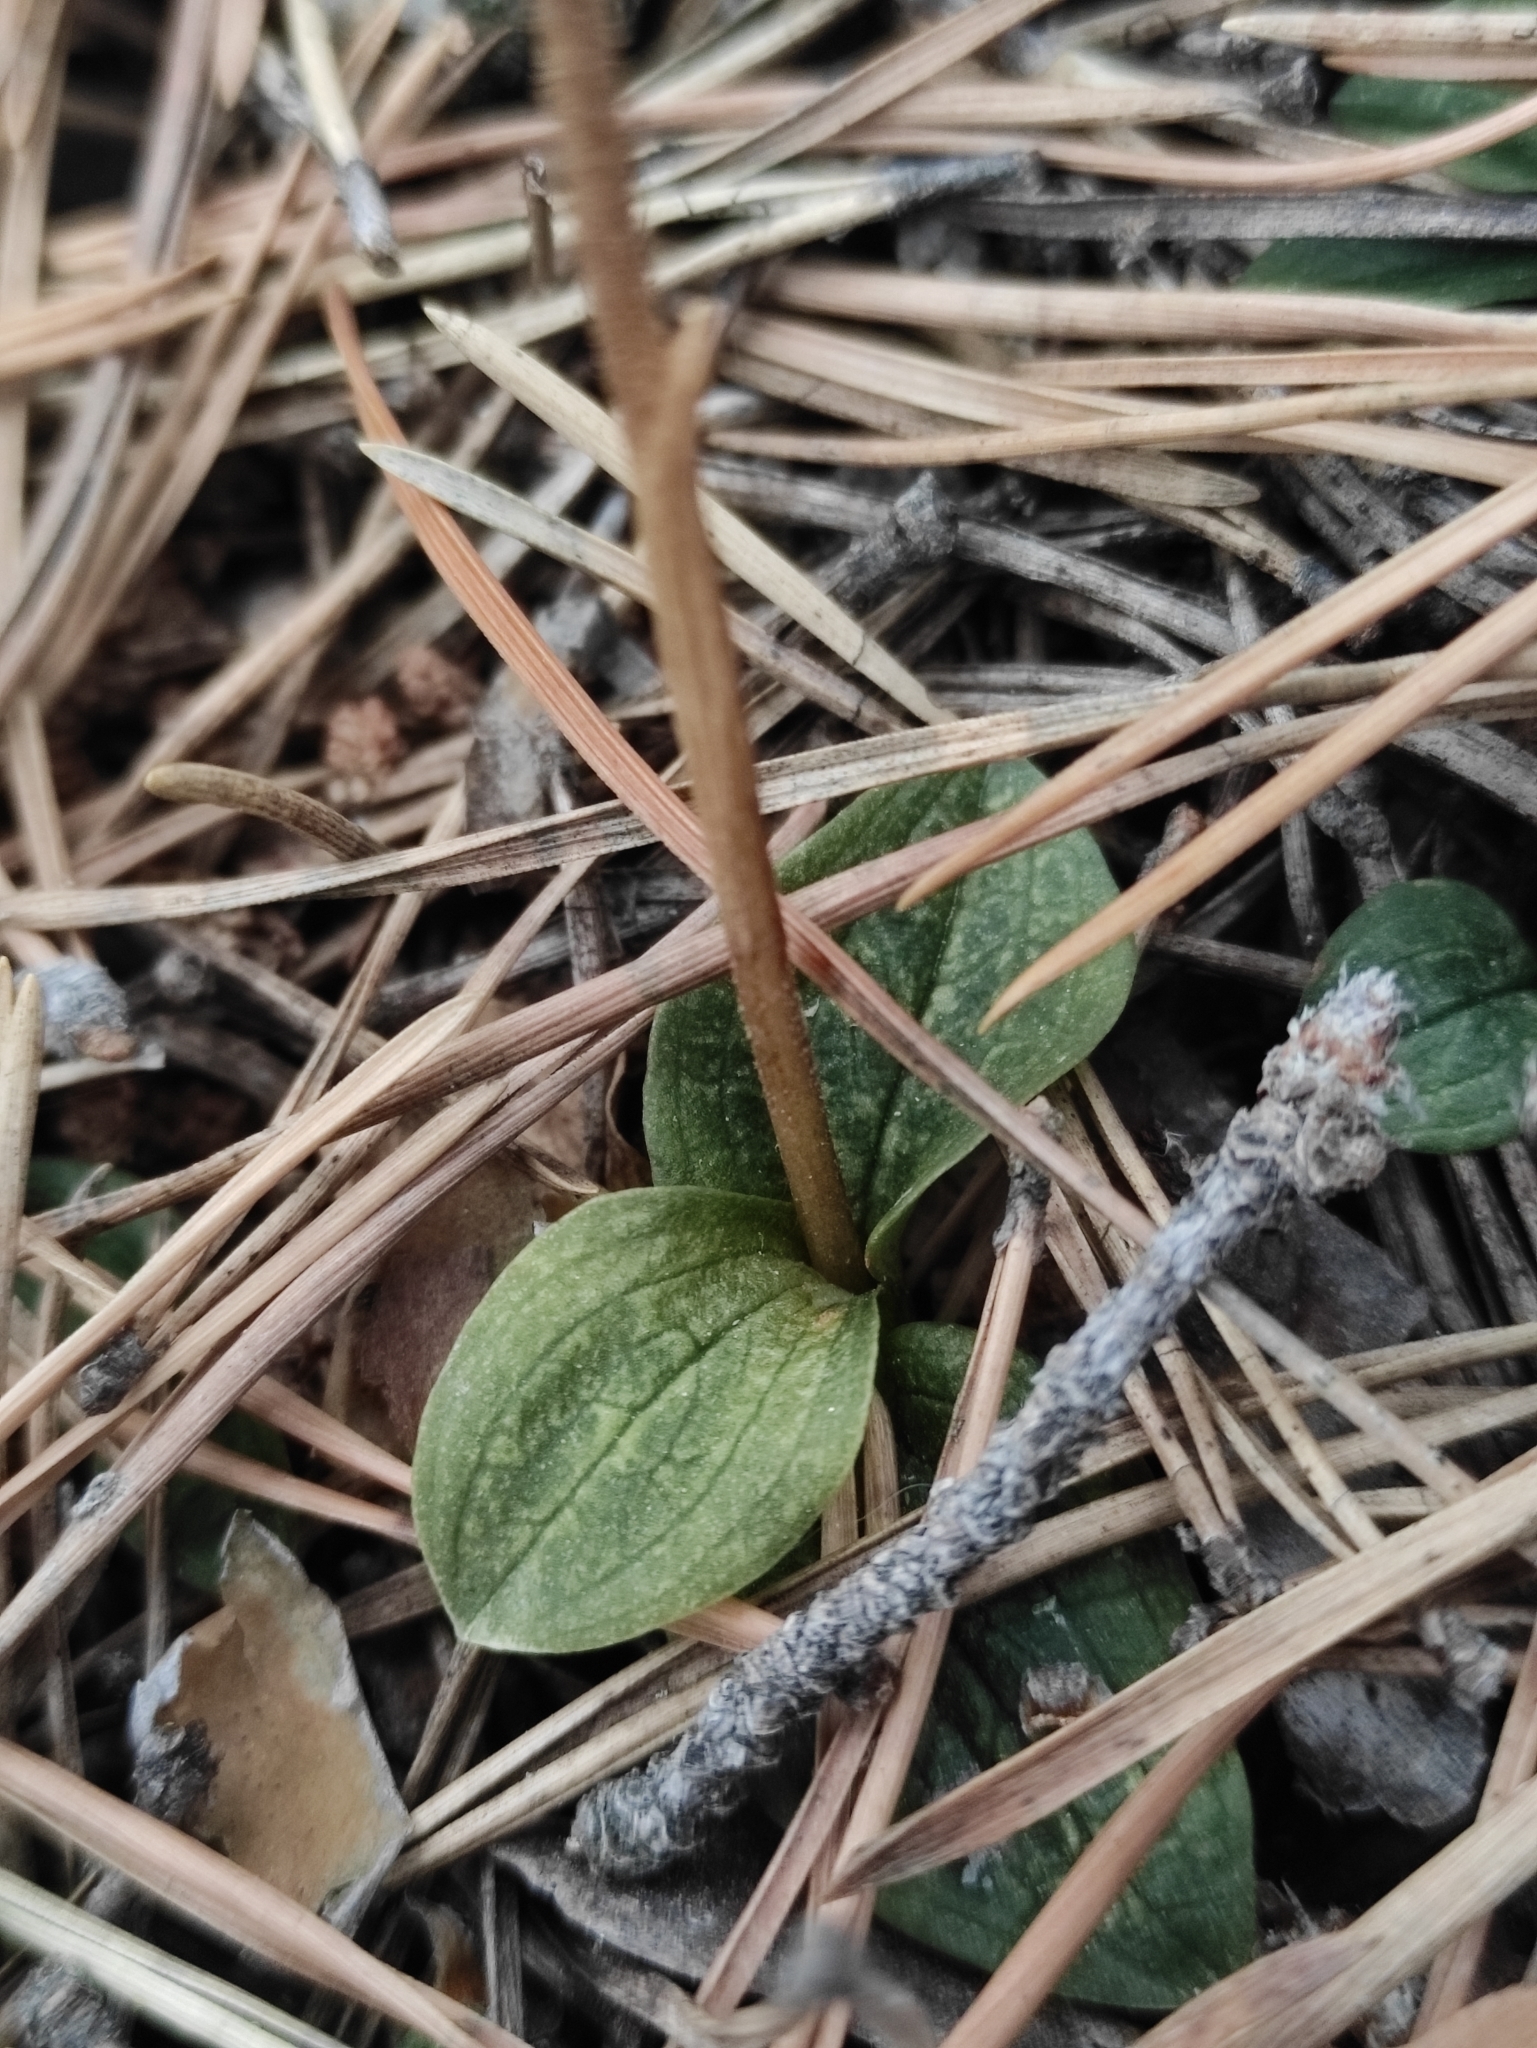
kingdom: Plantae
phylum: Tracheophyta
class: Liliopsida
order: Asparagales
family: Orchidaceae
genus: Goodyera
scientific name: Goodyera repens
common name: Creeping lady's-tresses
